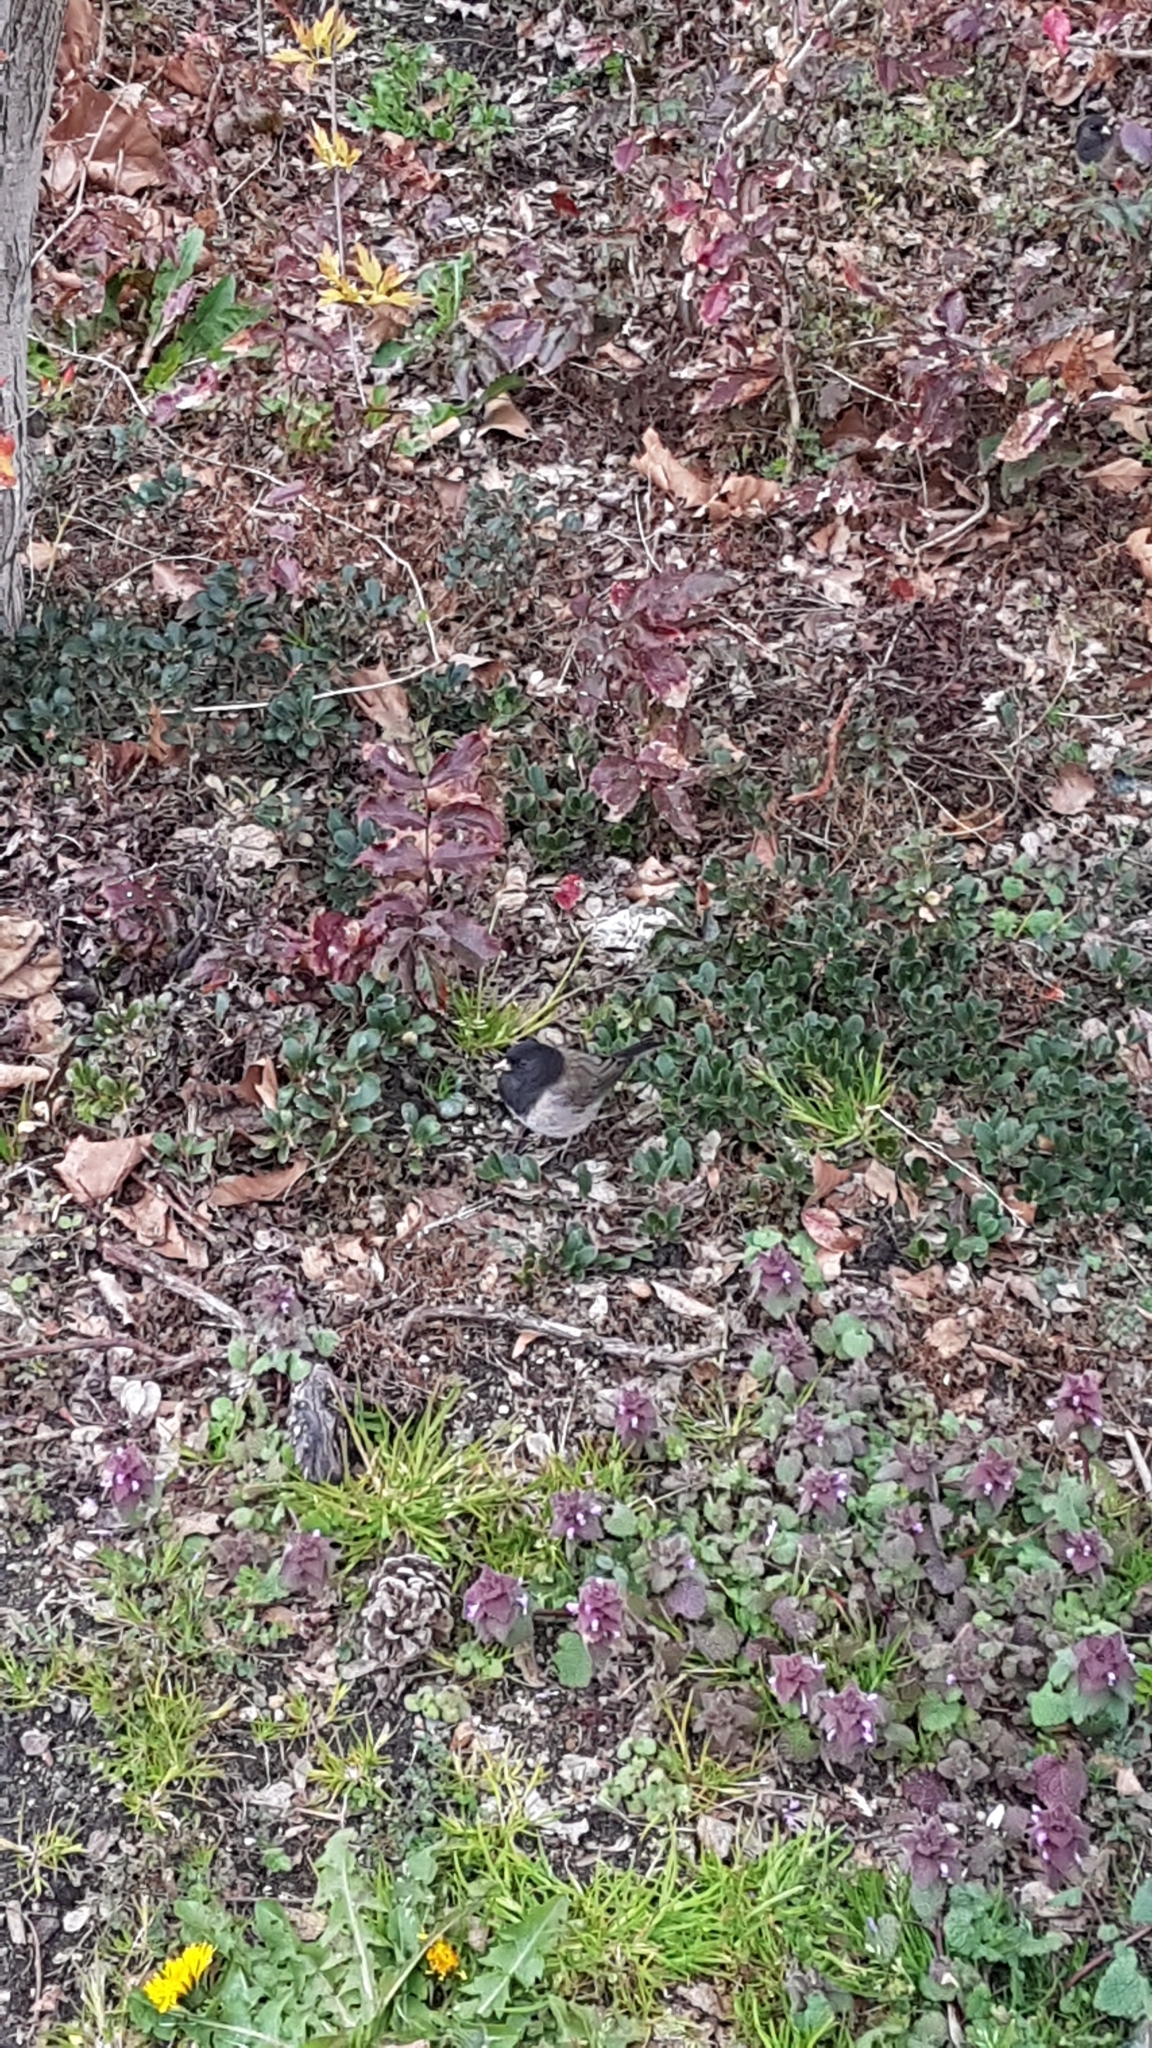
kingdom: Animalia
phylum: Chordata
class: Aves
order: Passeriformes
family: Passerellidae
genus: Junco
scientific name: Junco hyemalis
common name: Dark-eyed junco
